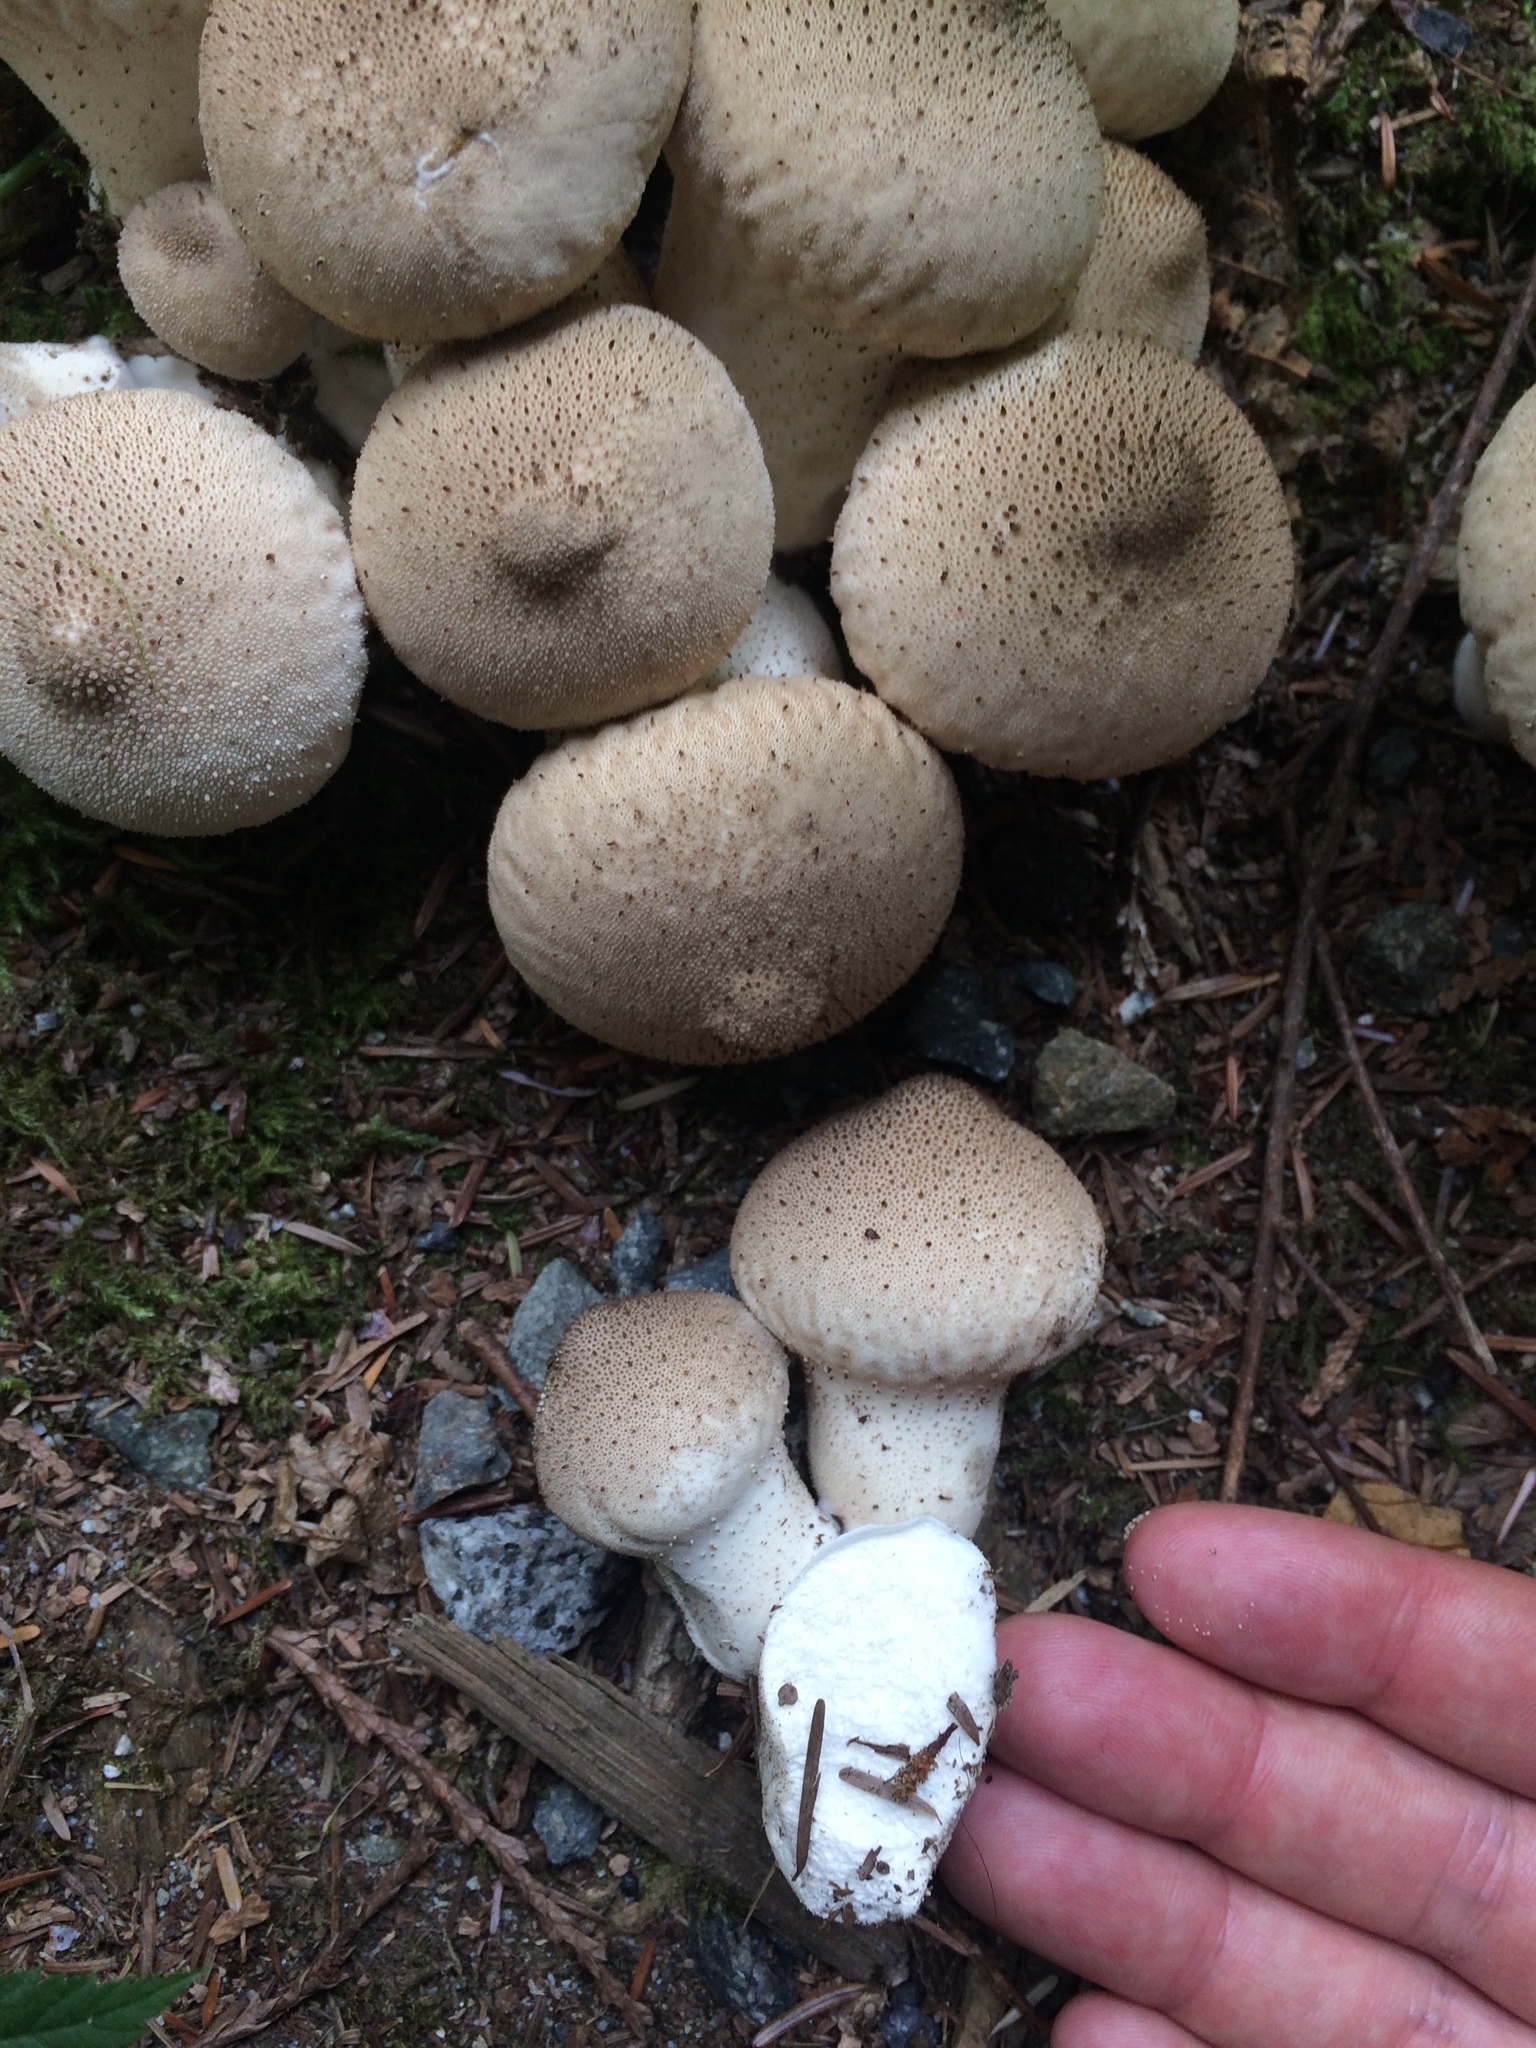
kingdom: Fungi
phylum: Basidiomycota
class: Agaricomycetes
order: Agaricales
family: Lycoperdaceae
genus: Lycoperdon
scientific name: Lycoperdon perlatum
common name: Common puffball
